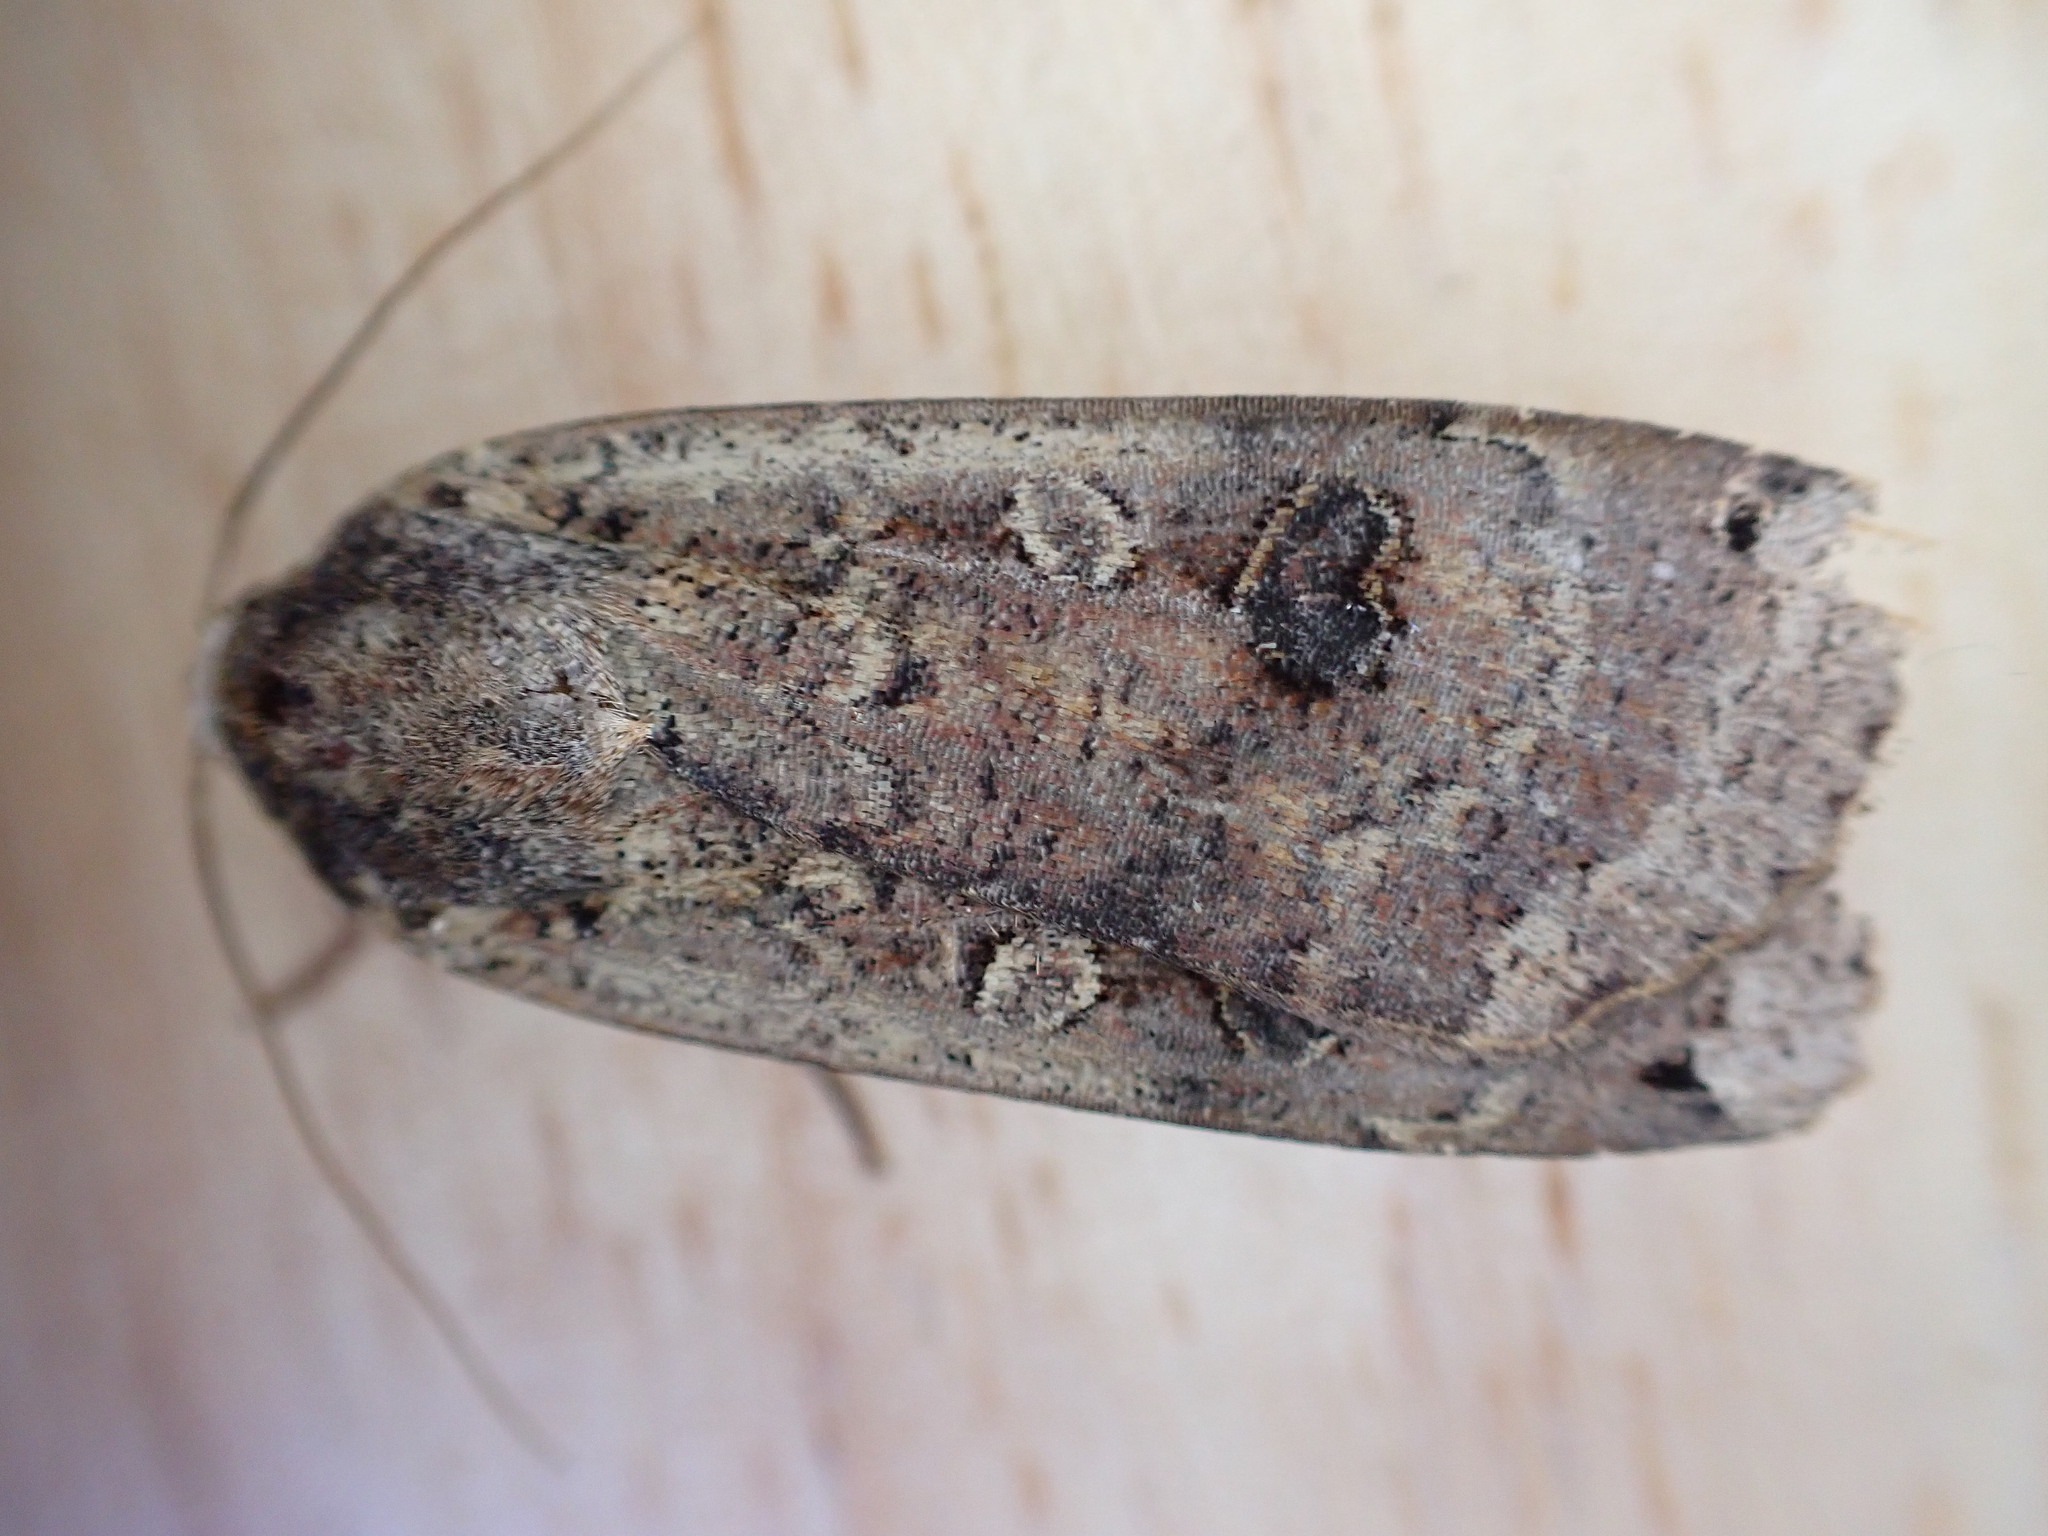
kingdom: Animalia
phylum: Arthropoda
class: Insecta
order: Lepidoptera
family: Noctuidae
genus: Noctua
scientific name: Noctua pronuba
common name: Large yellow underwing
